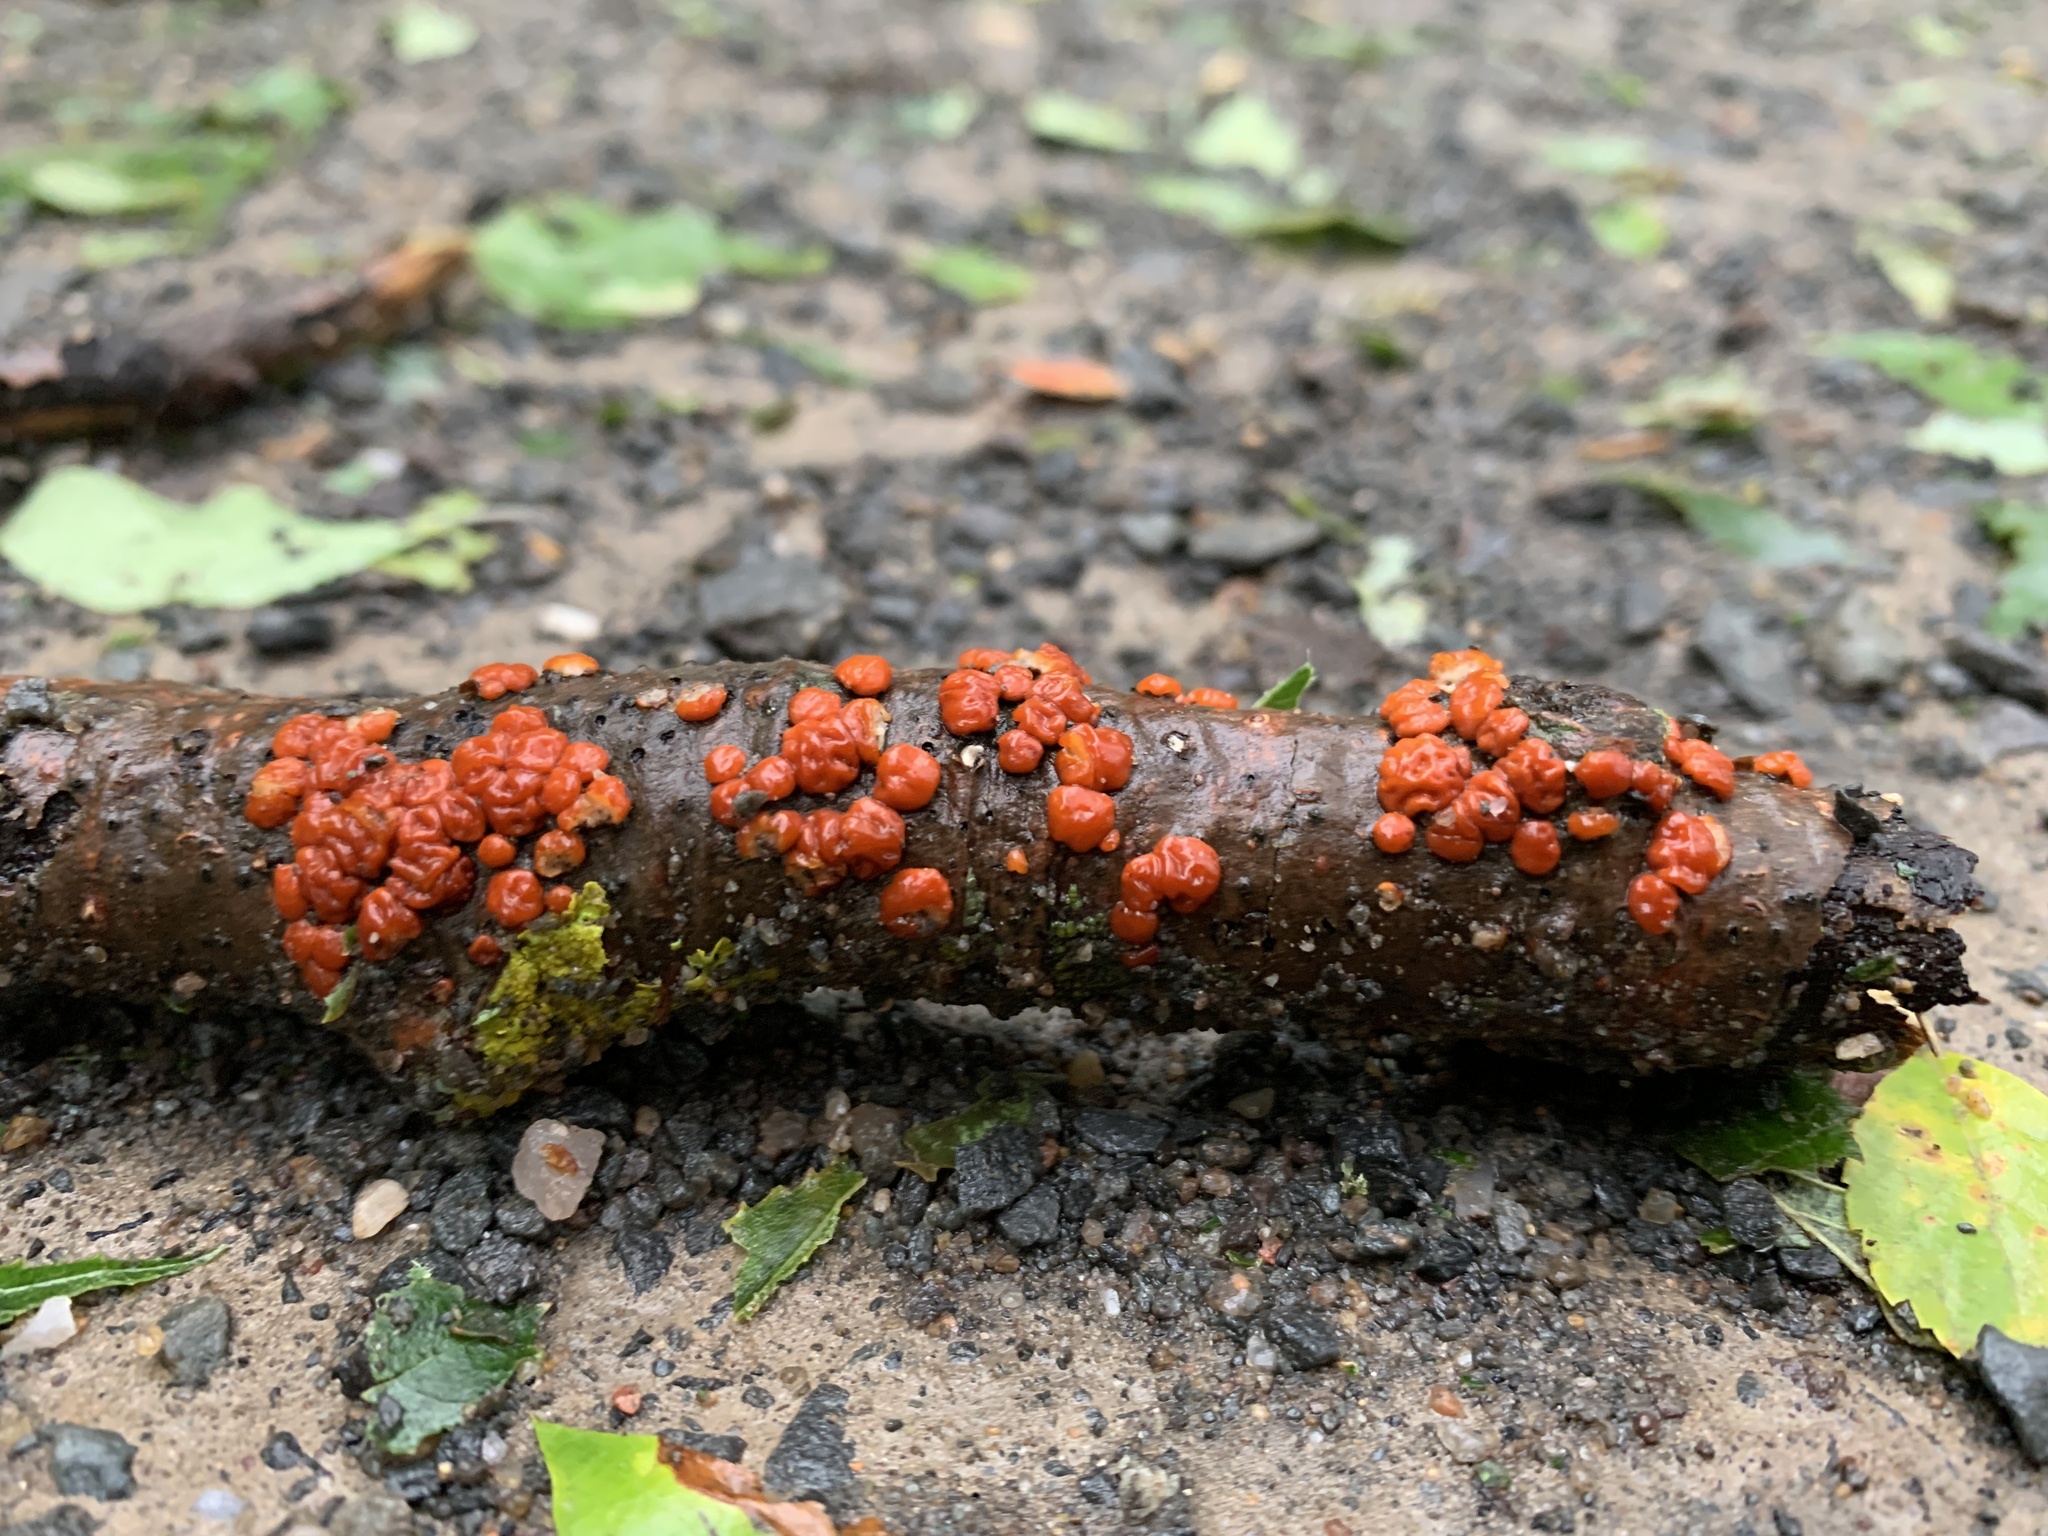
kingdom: Fungi
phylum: Basidiomycota
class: Agaricomycetes
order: Russulales
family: Peniophoraceae
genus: Peniophora
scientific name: Peniophora rufa
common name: Red tree brain fungus
